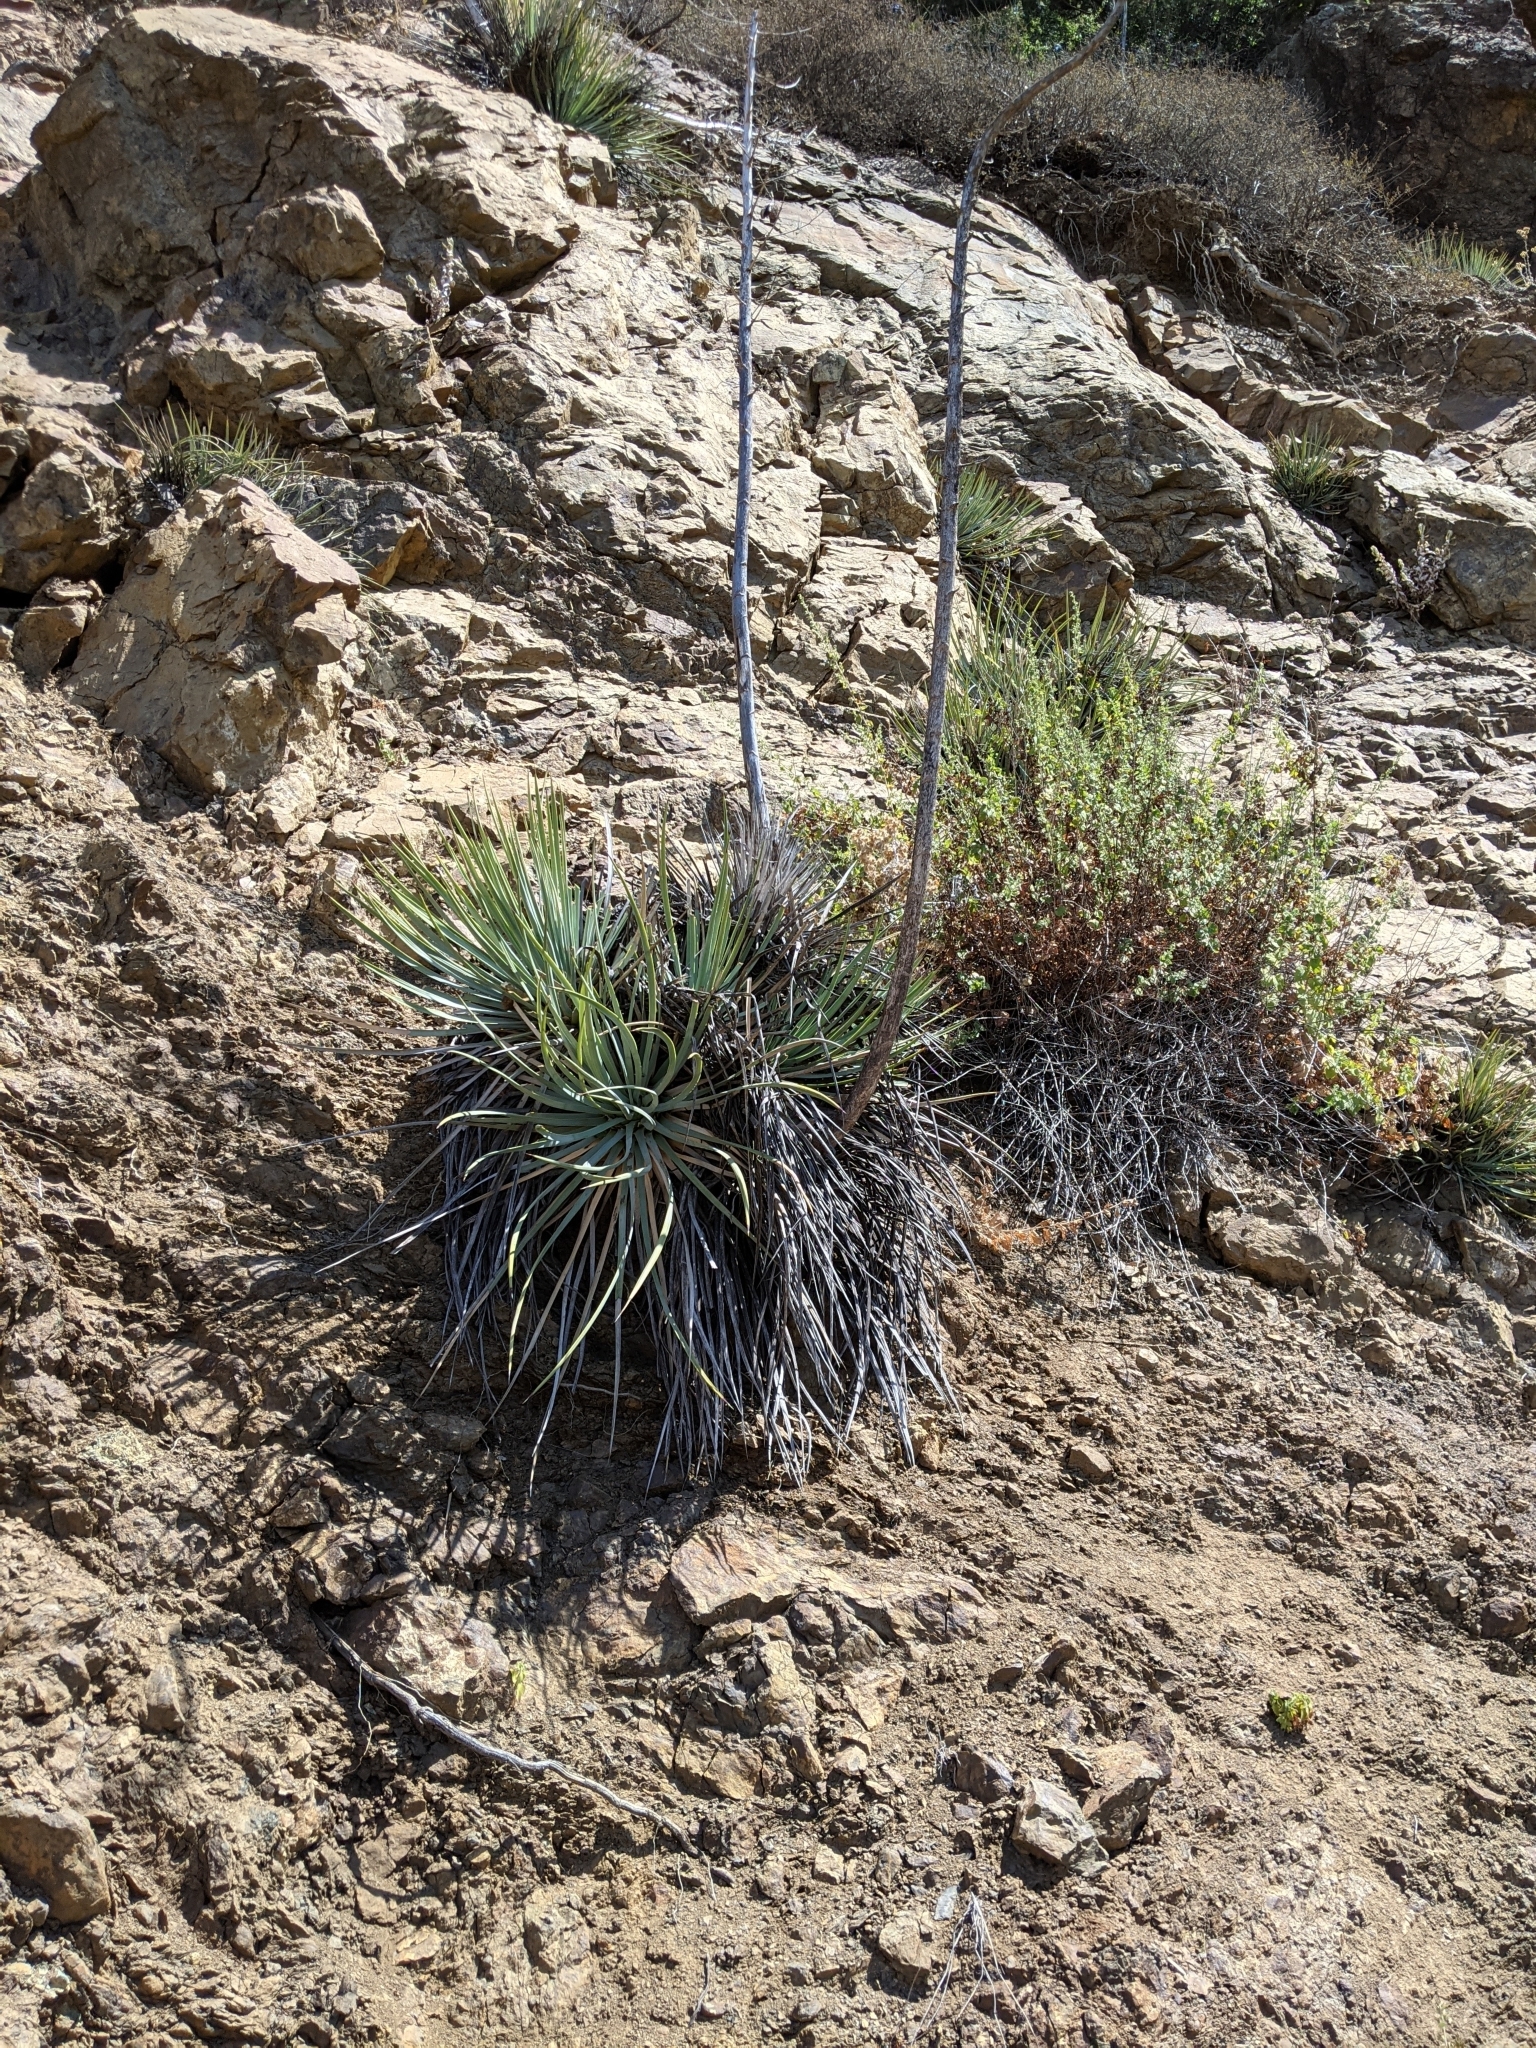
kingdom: Plantae
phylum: Tracheophyta
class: Liliopsida
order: Asparagales
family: Asparagaceae
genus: Hesperoyucca
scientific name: Hesperoyucca whipplei
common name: Our lord's-candle
